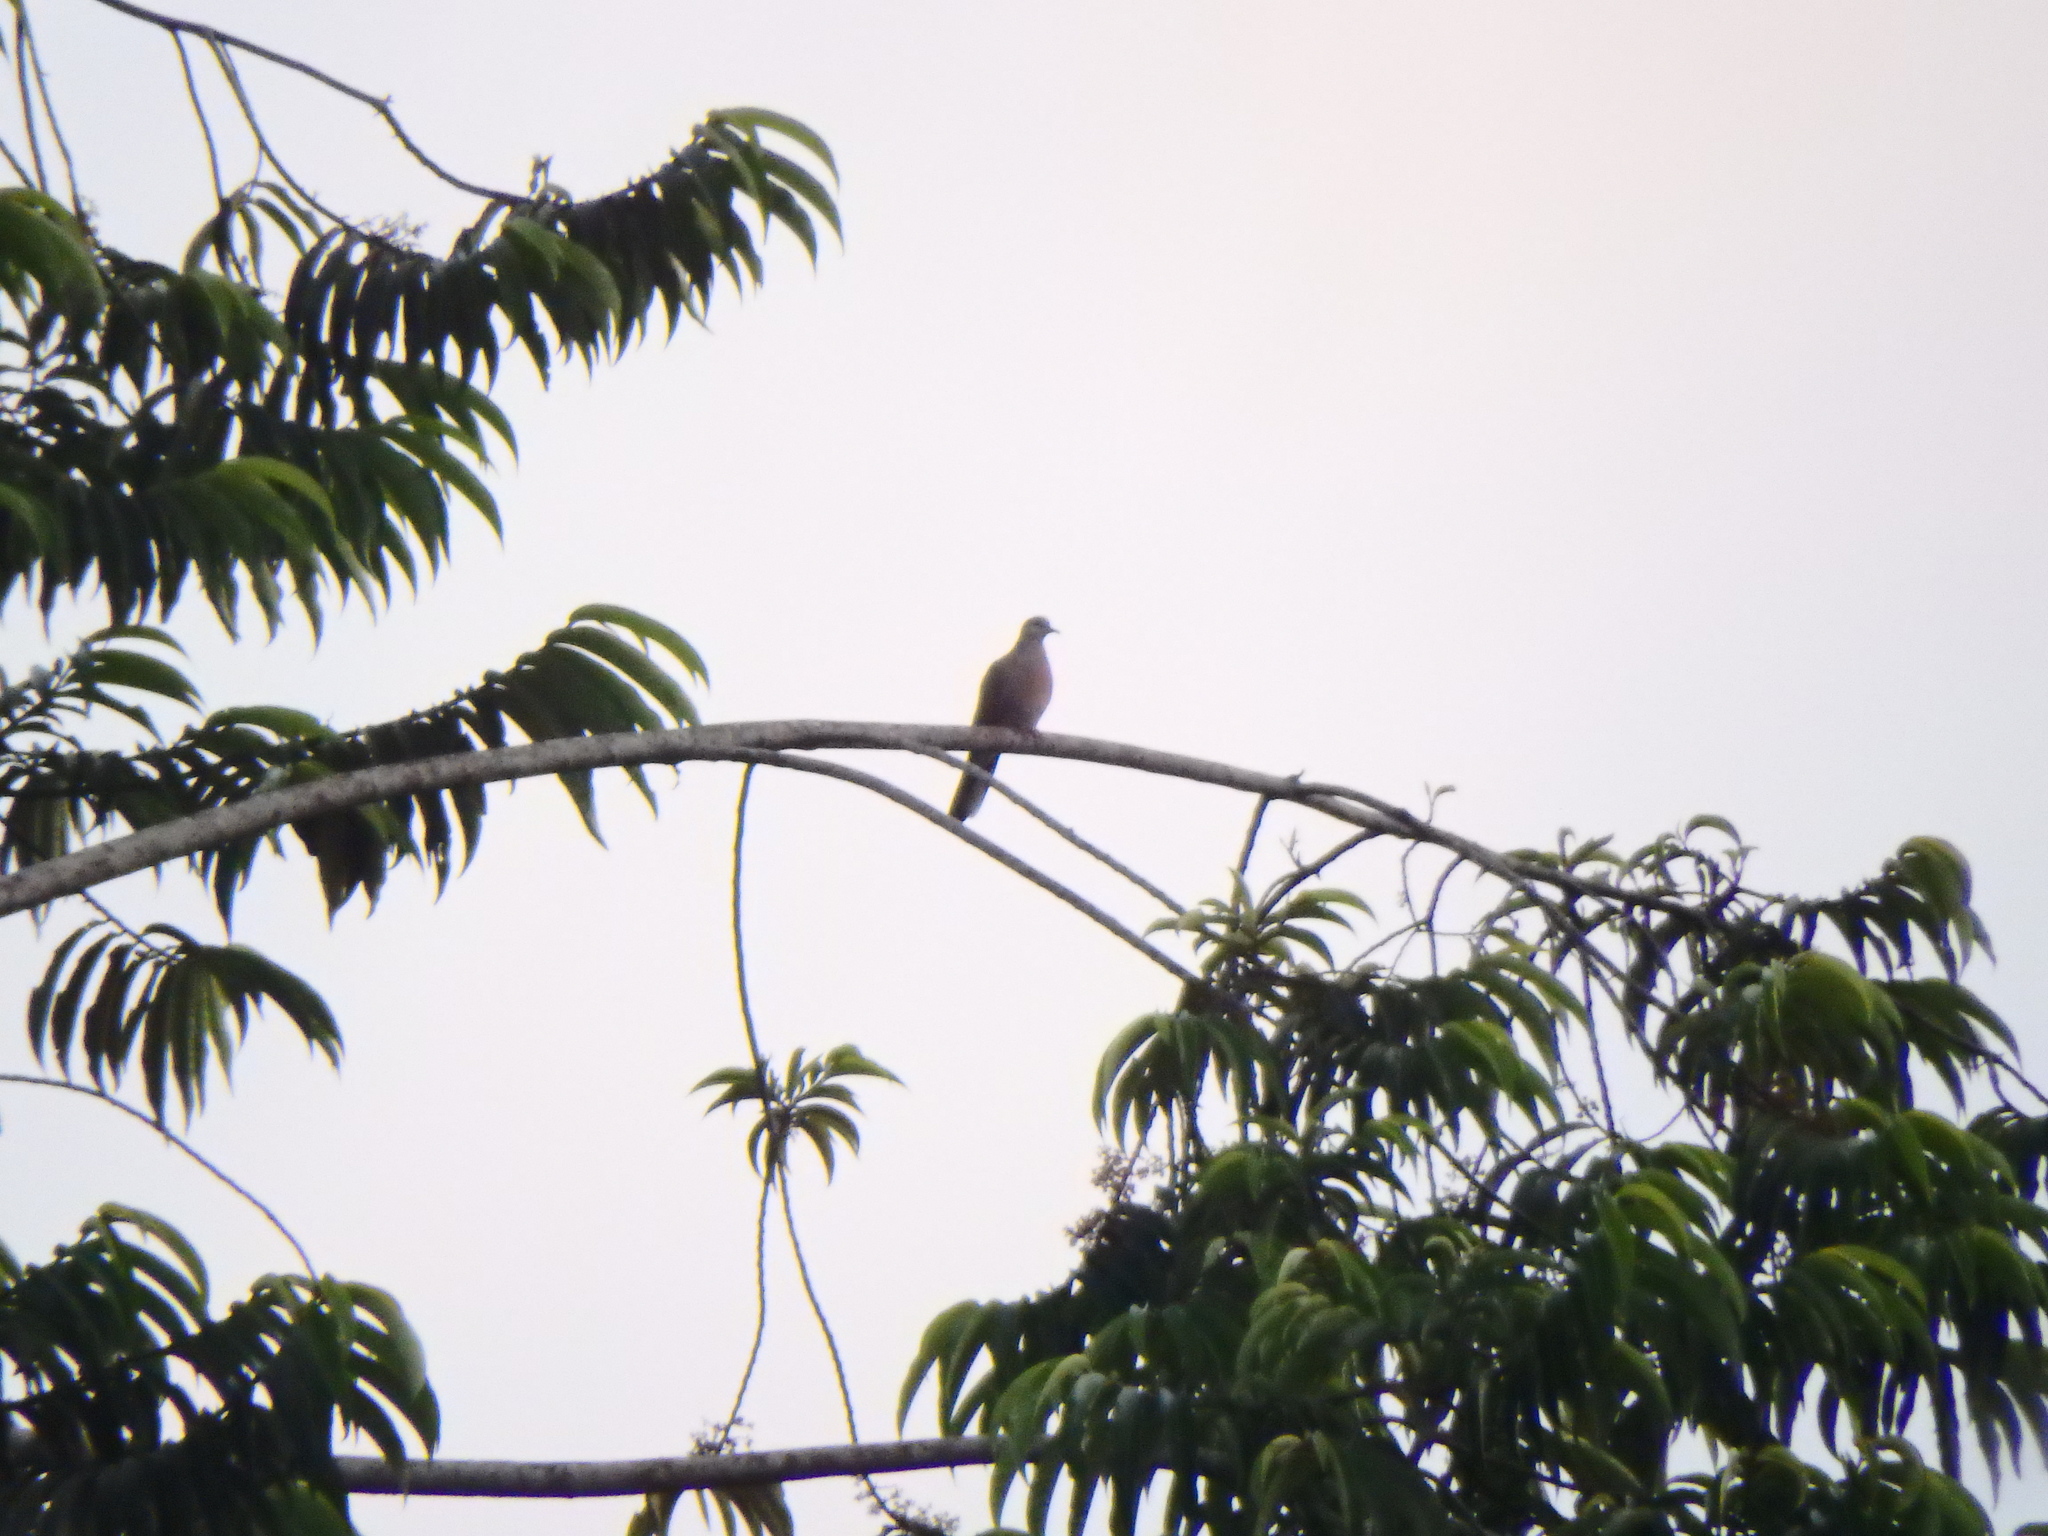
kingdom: Animalia
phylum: Chordata
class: Aves
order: Columbiformes
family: Columbidae
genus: Spilopelia
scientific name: Spilopelia chinensis
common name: Spotted dove
